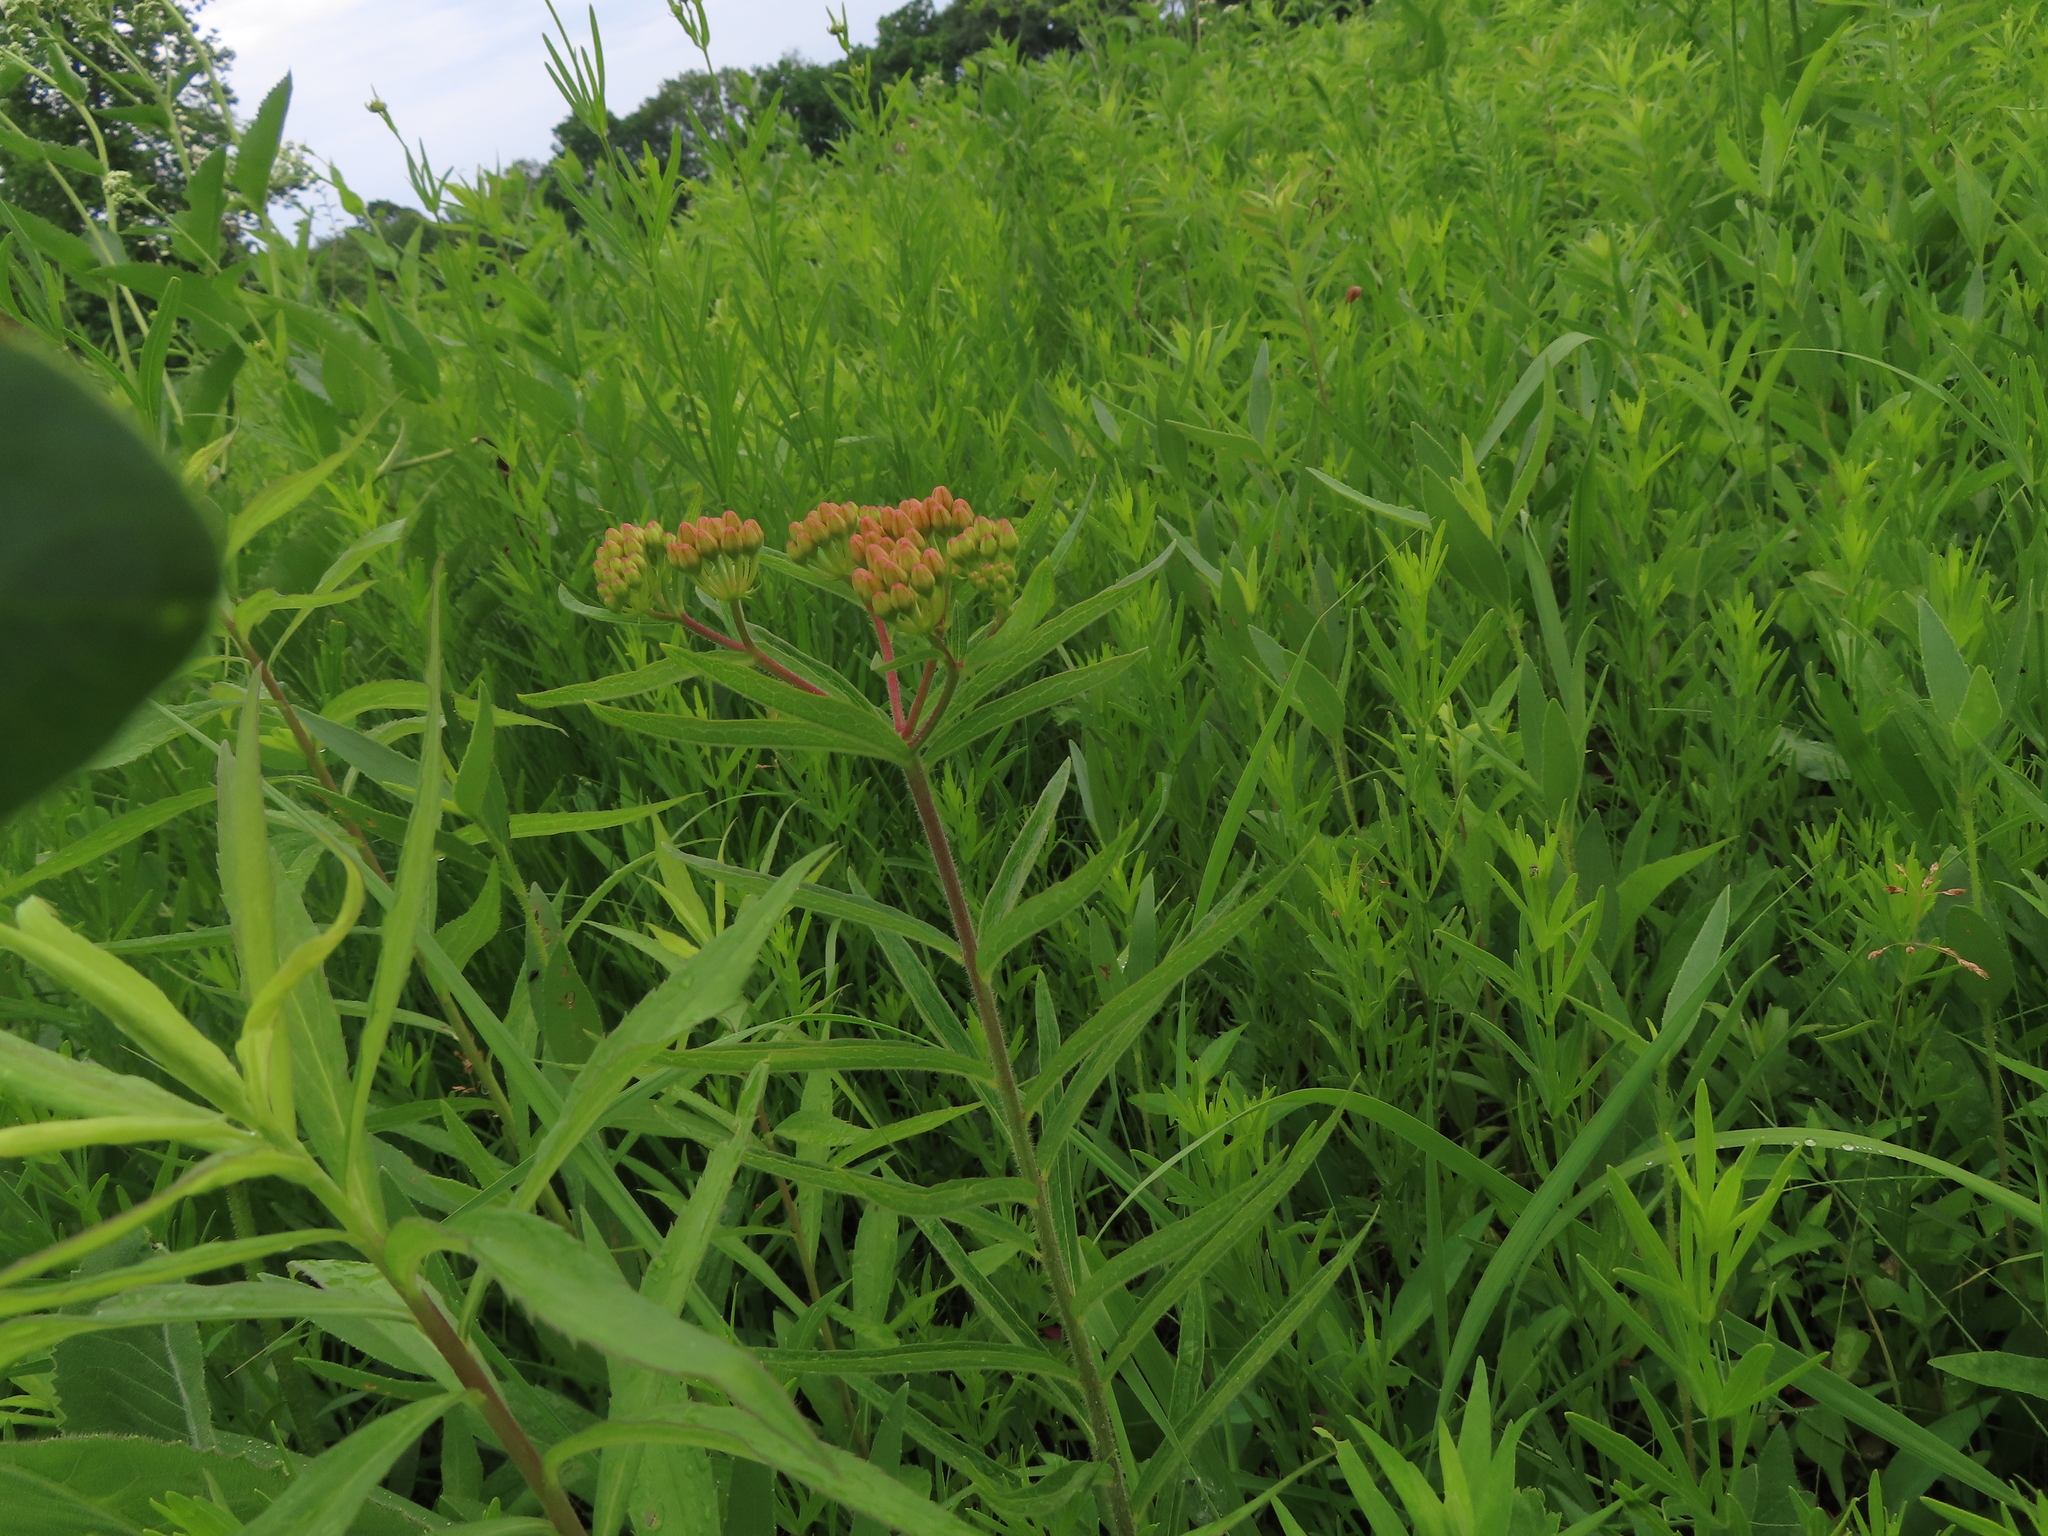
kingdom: Plantae
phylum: Tracheophyta
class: Magnoliopsida
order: Gentianales
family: Apocynaceae
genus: Asclepias
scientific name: Asclepias tuberosa
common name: Butterfly milkweed
